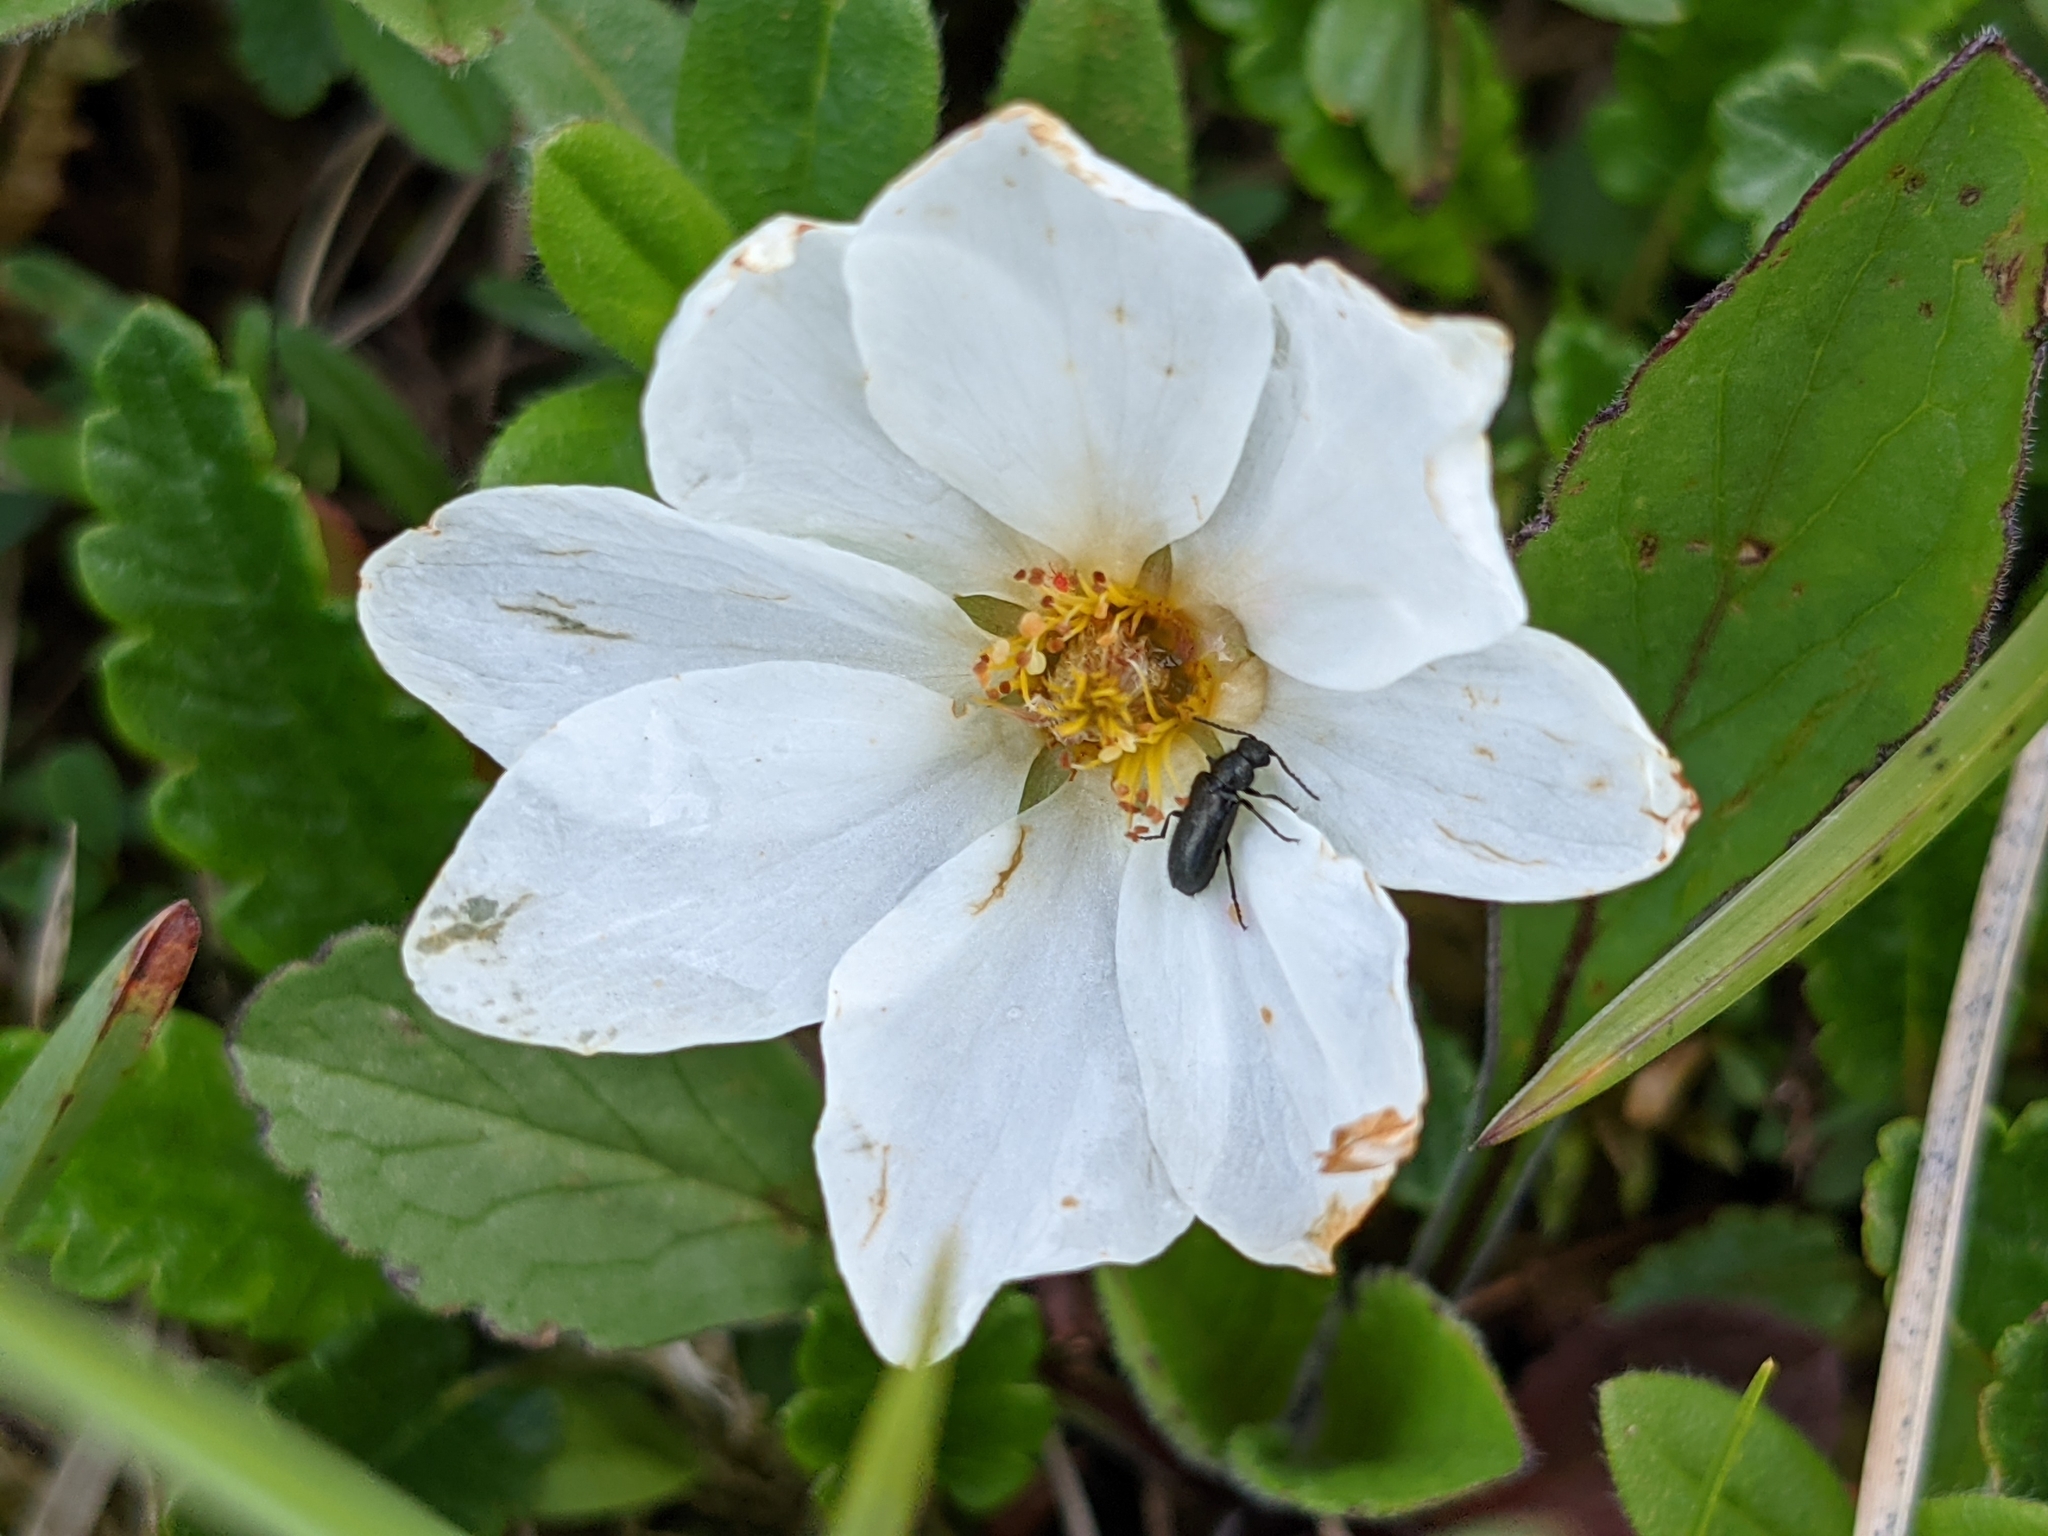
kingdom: Plantae
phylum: Tracheophyta
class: Magnoliopsida
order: Rosales
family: Rosaceae
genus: Dryas
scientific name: Dryas octopetala
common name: Eight-petal mountain-avens
